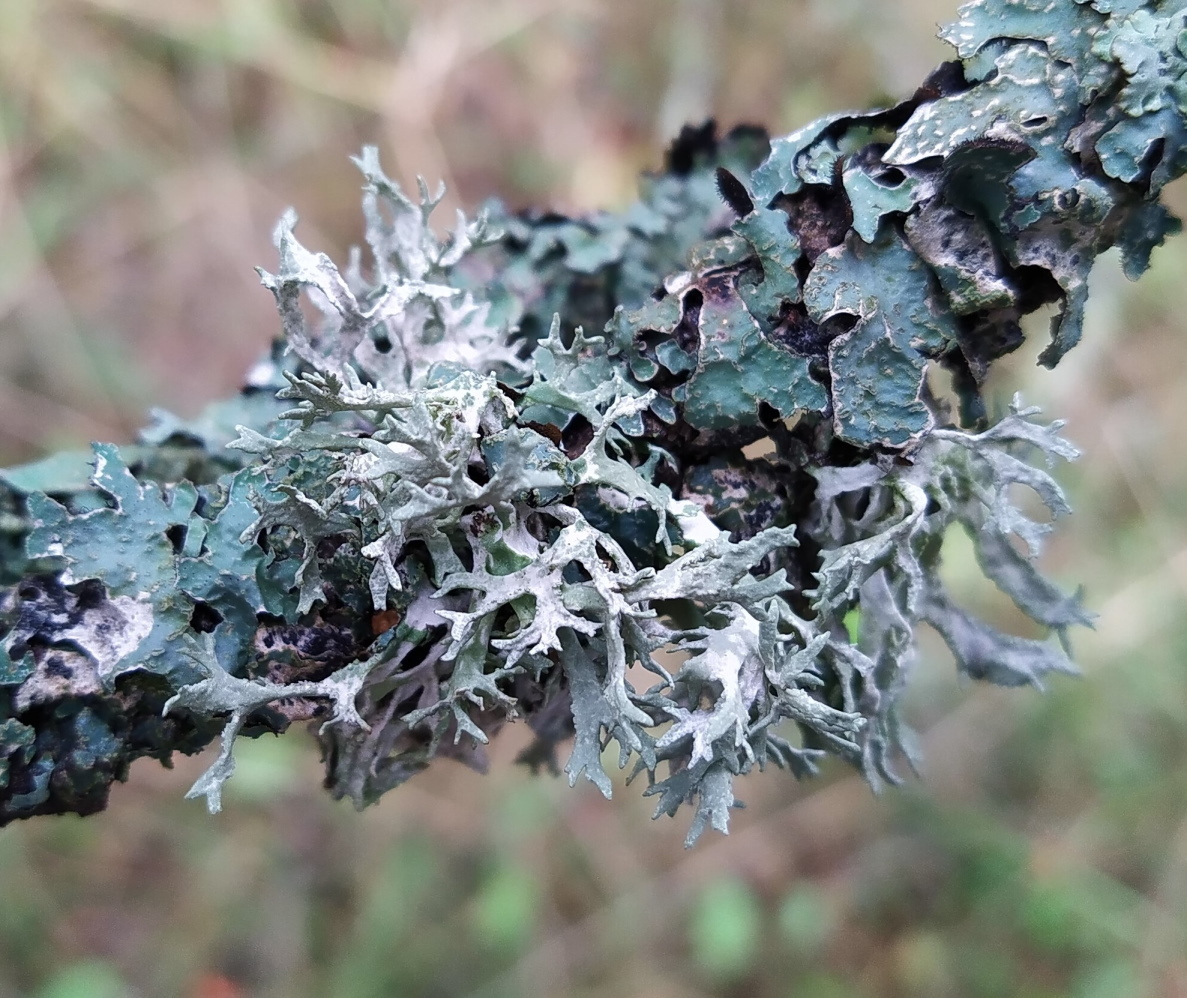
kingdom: Fungi
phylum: Ascomycota
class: Lecanoromycetes
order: Lecanorales
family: Parmeliaceae
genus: Evernia
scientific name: Evernia prunastri
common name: Oak moss
